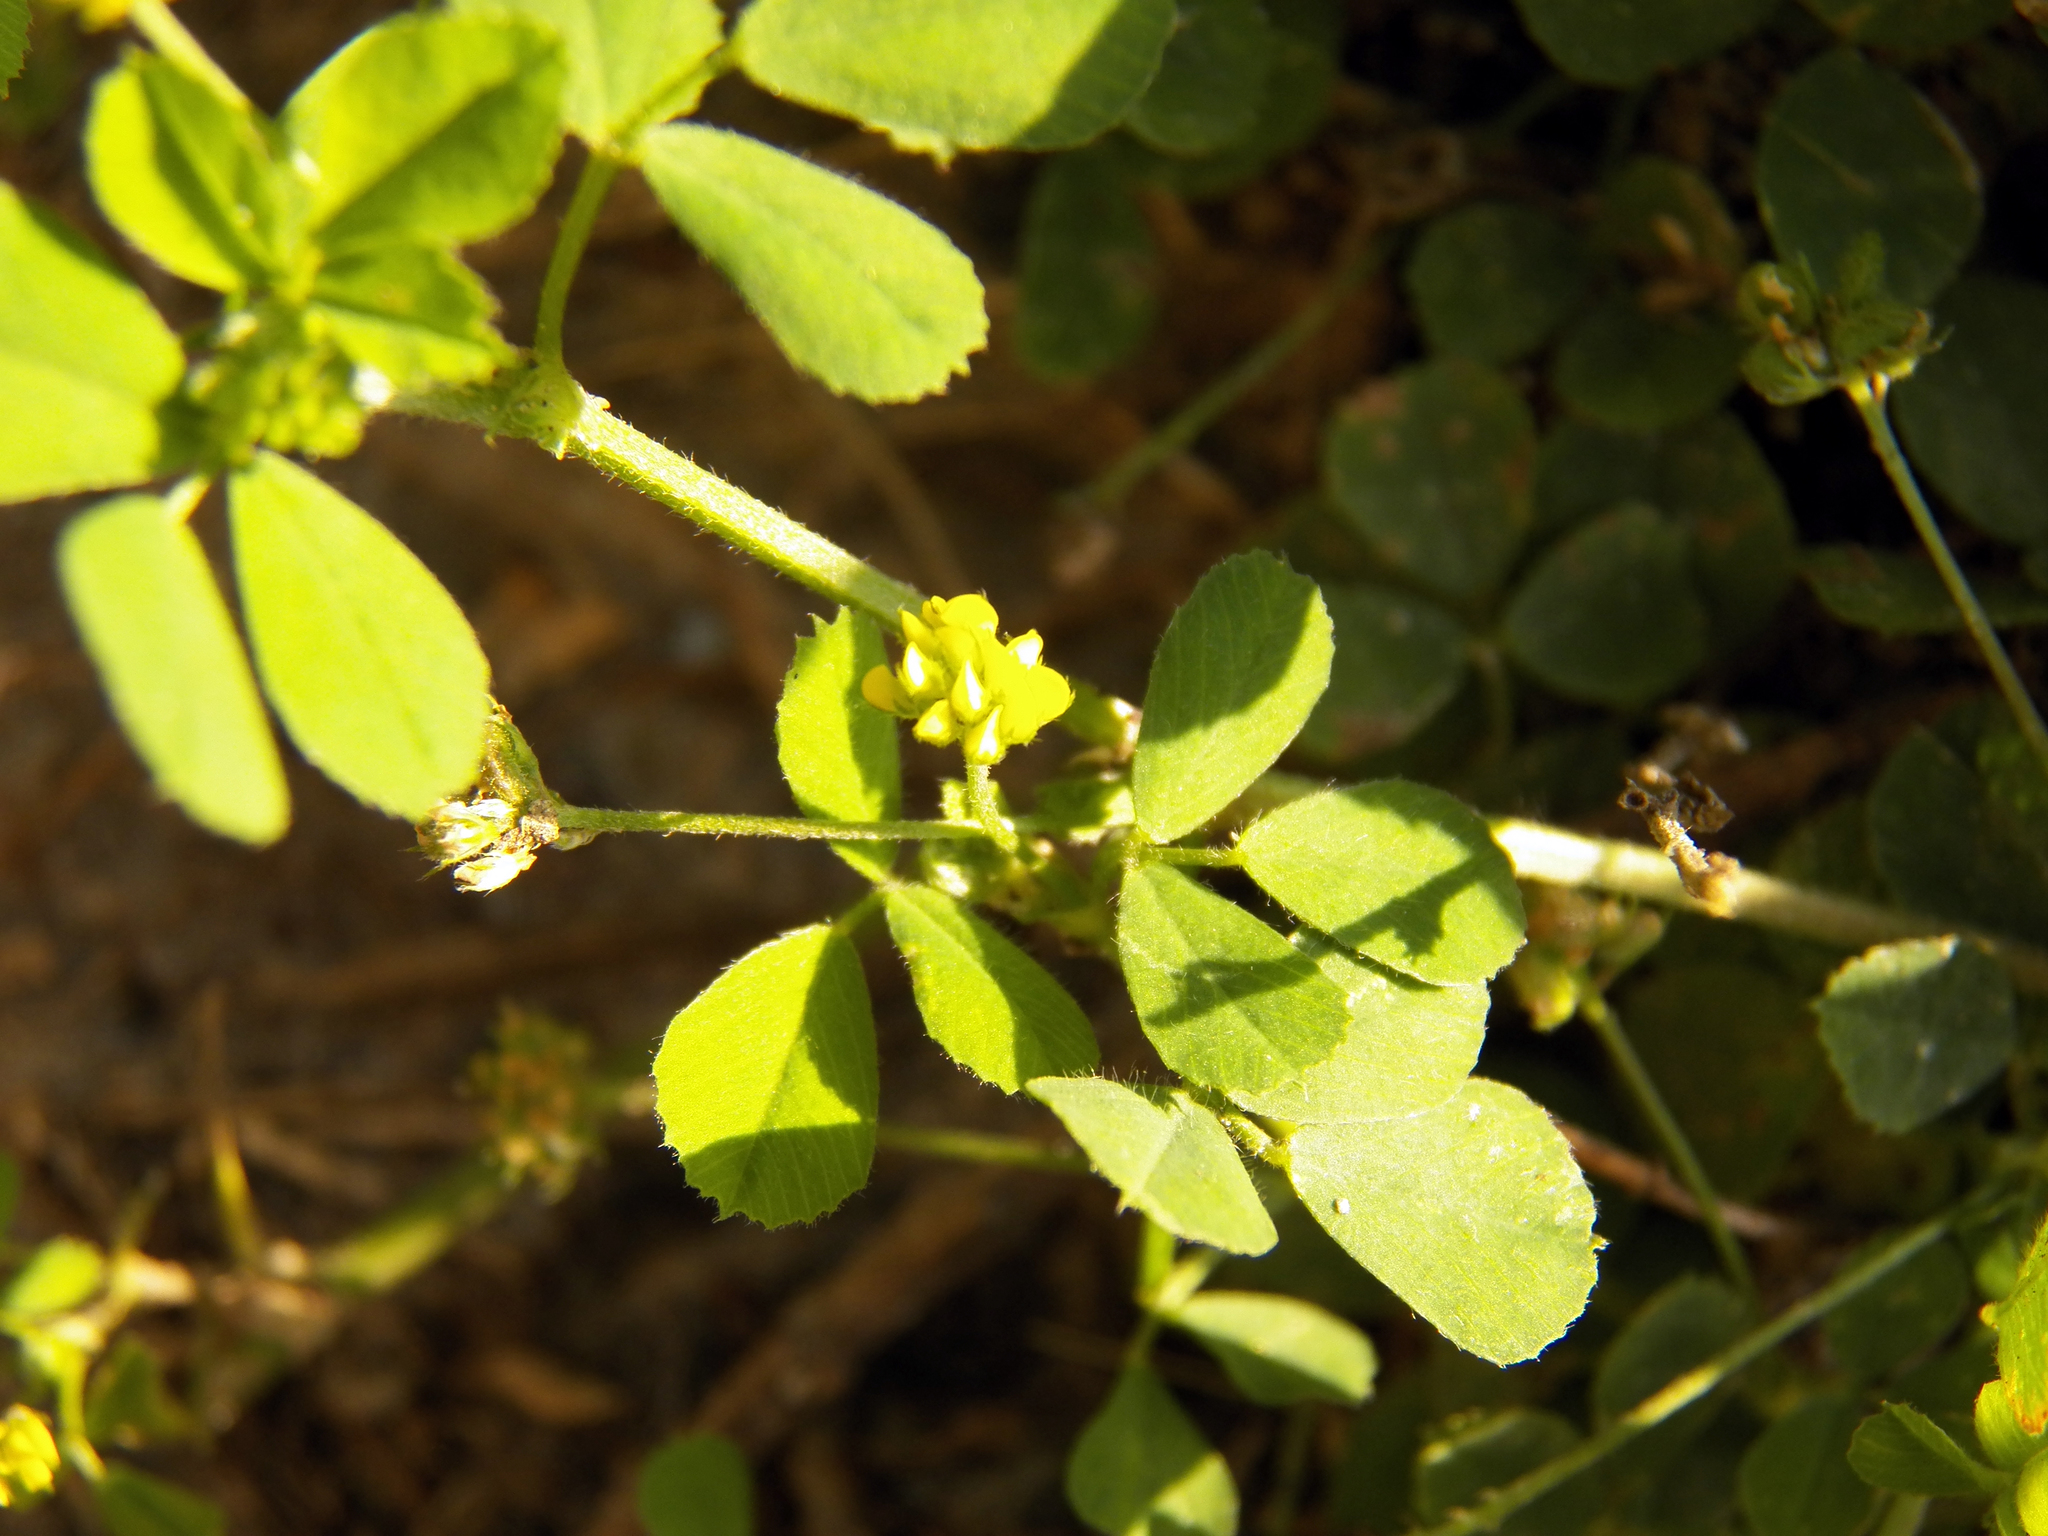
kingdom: Plantae
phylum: Tracheophyta
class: Magnoliopsida
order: Fabales
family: Fabaceae
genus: Medicago
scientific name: Medicago lupulina
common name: Black medick
